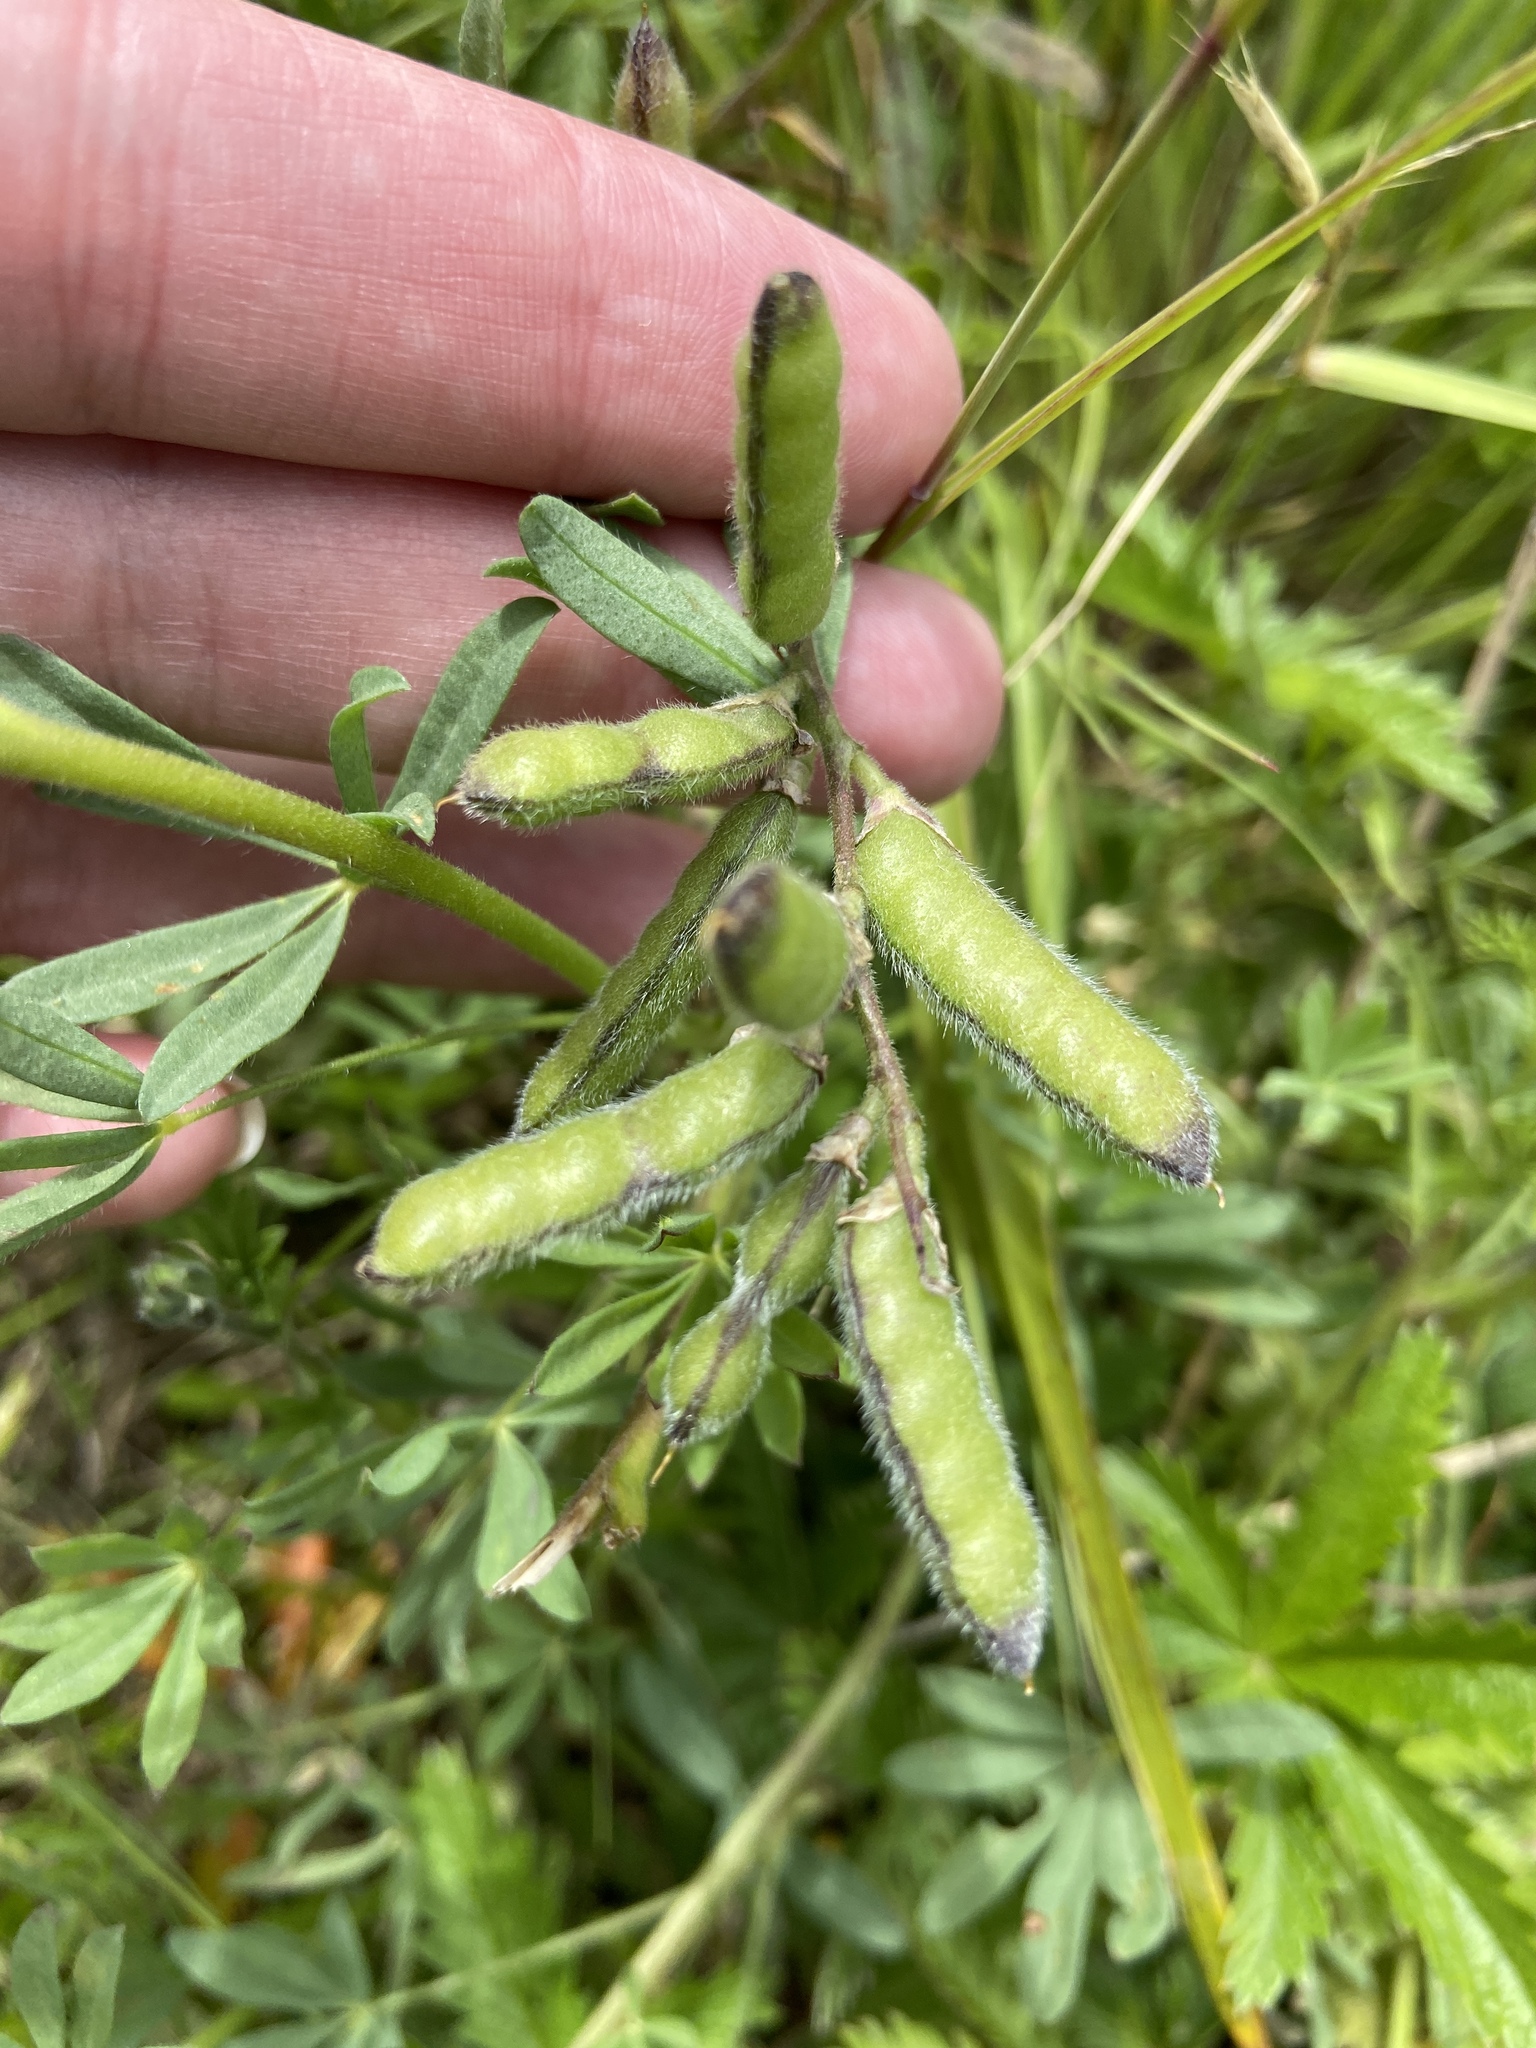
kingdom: Plantae
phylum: Tracheophyta
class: Magnoliopsida
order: Fabales
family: Fabaceae
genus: Lupinus
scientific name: Lupinus bicolor
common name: Miniature lupine
